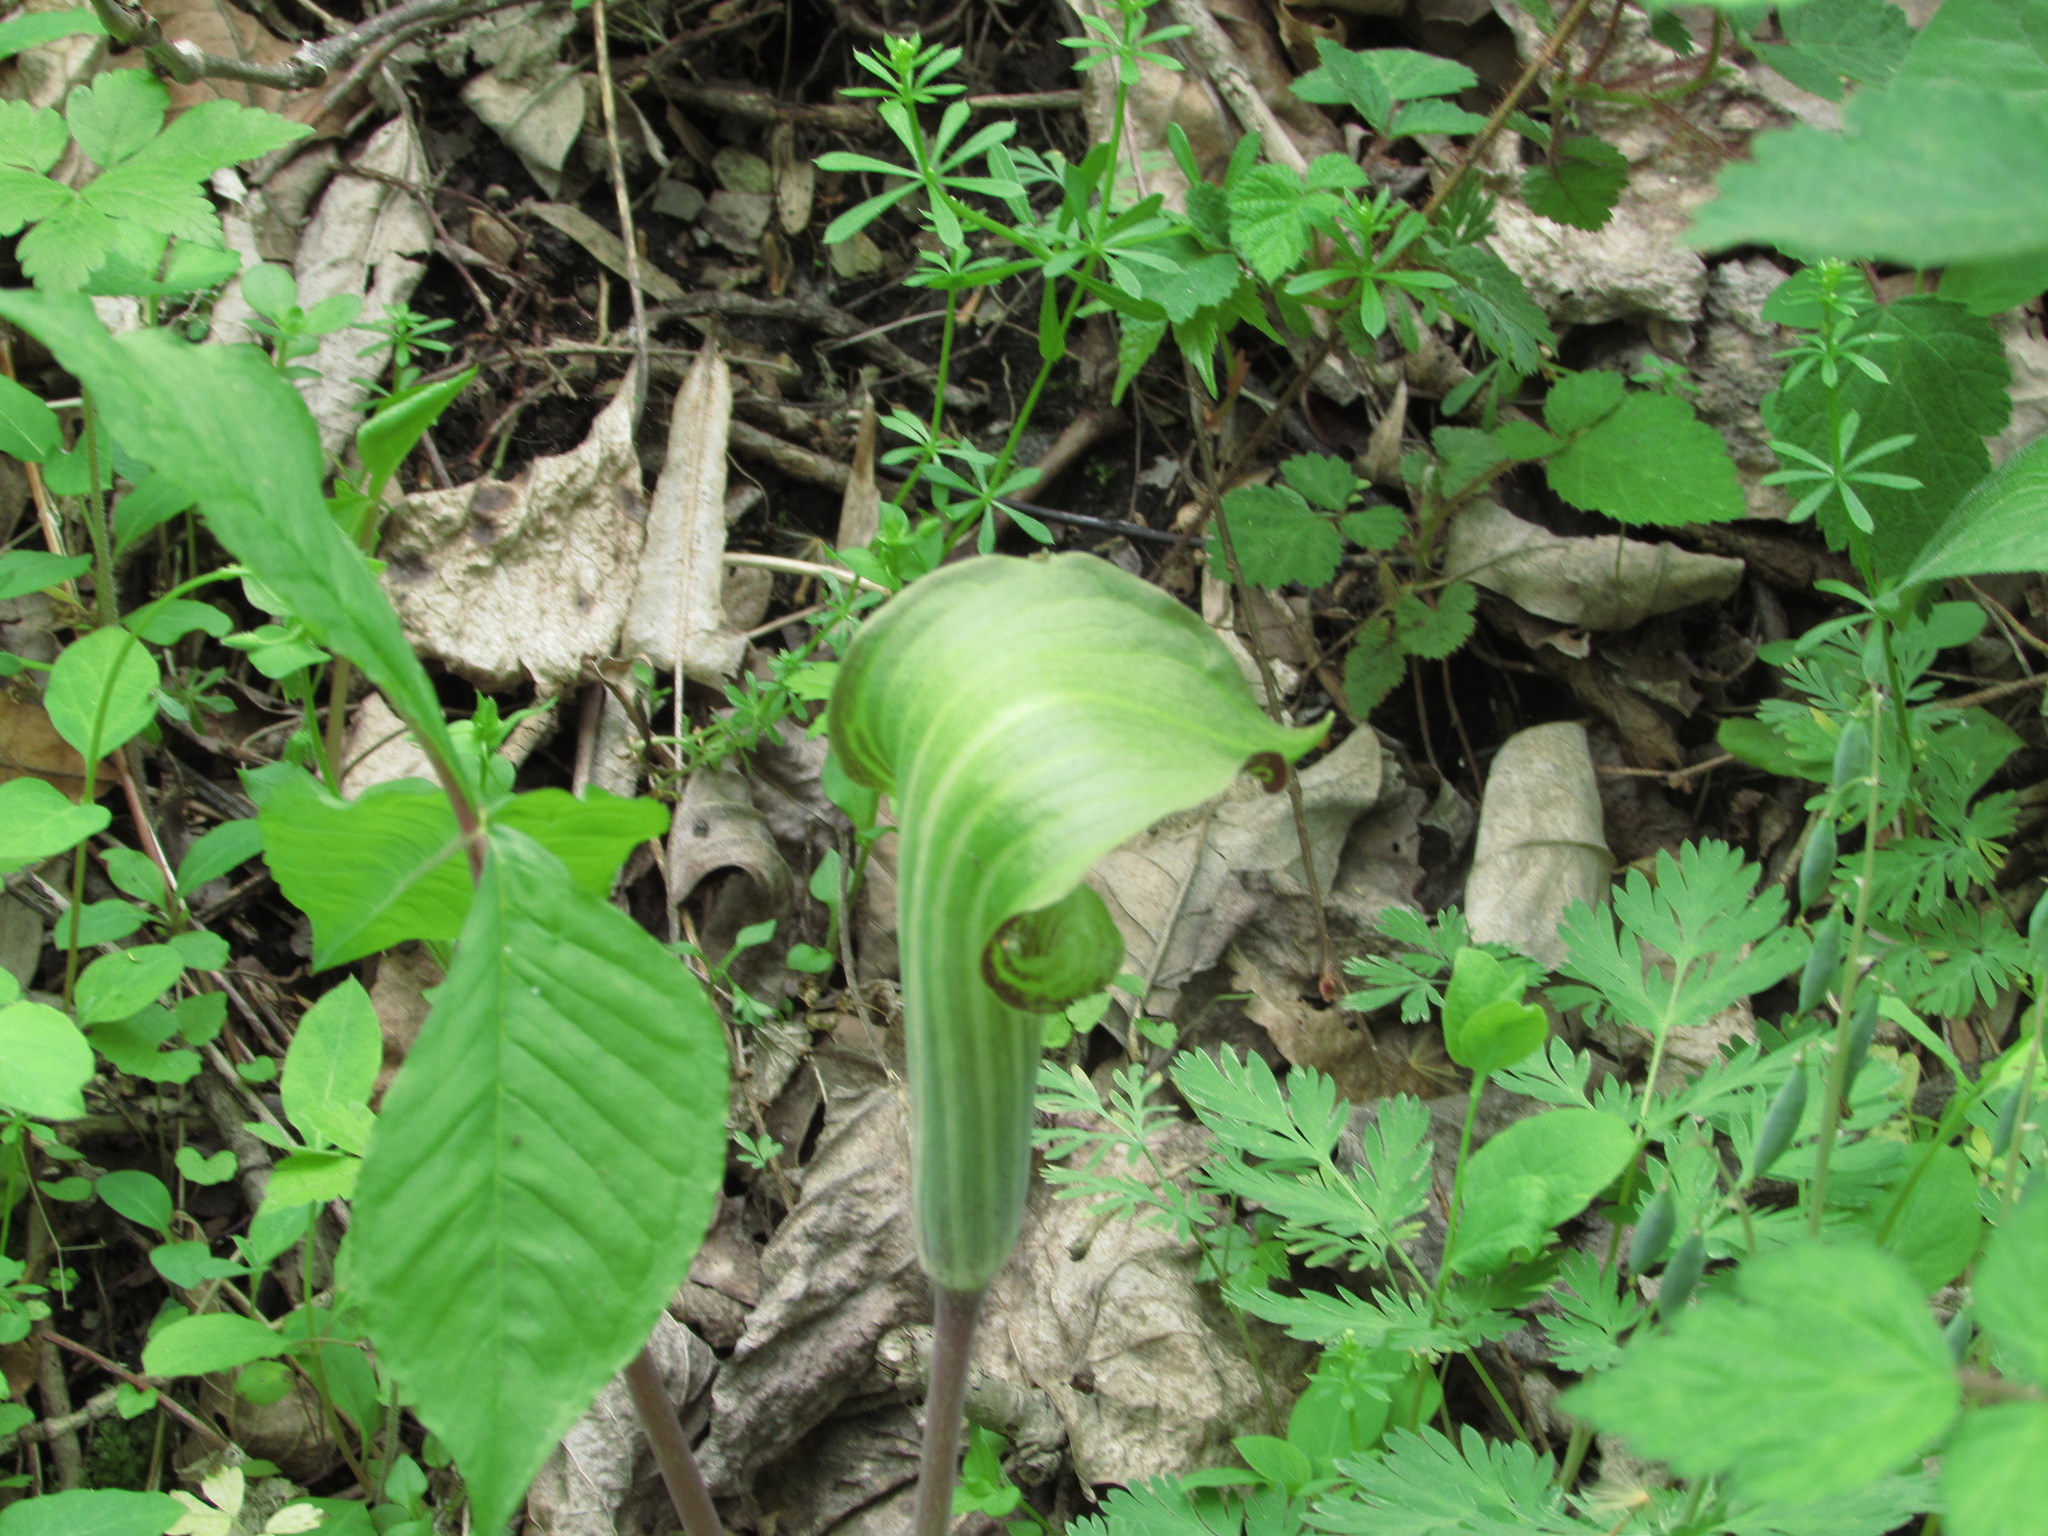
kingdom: Plantae
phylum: Tracheophyta
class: Liliopsida
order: Alismatales
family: Araceae
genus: Arisaema
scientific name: Arisaema triphyllum
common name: Jack-in-the-pulpit
